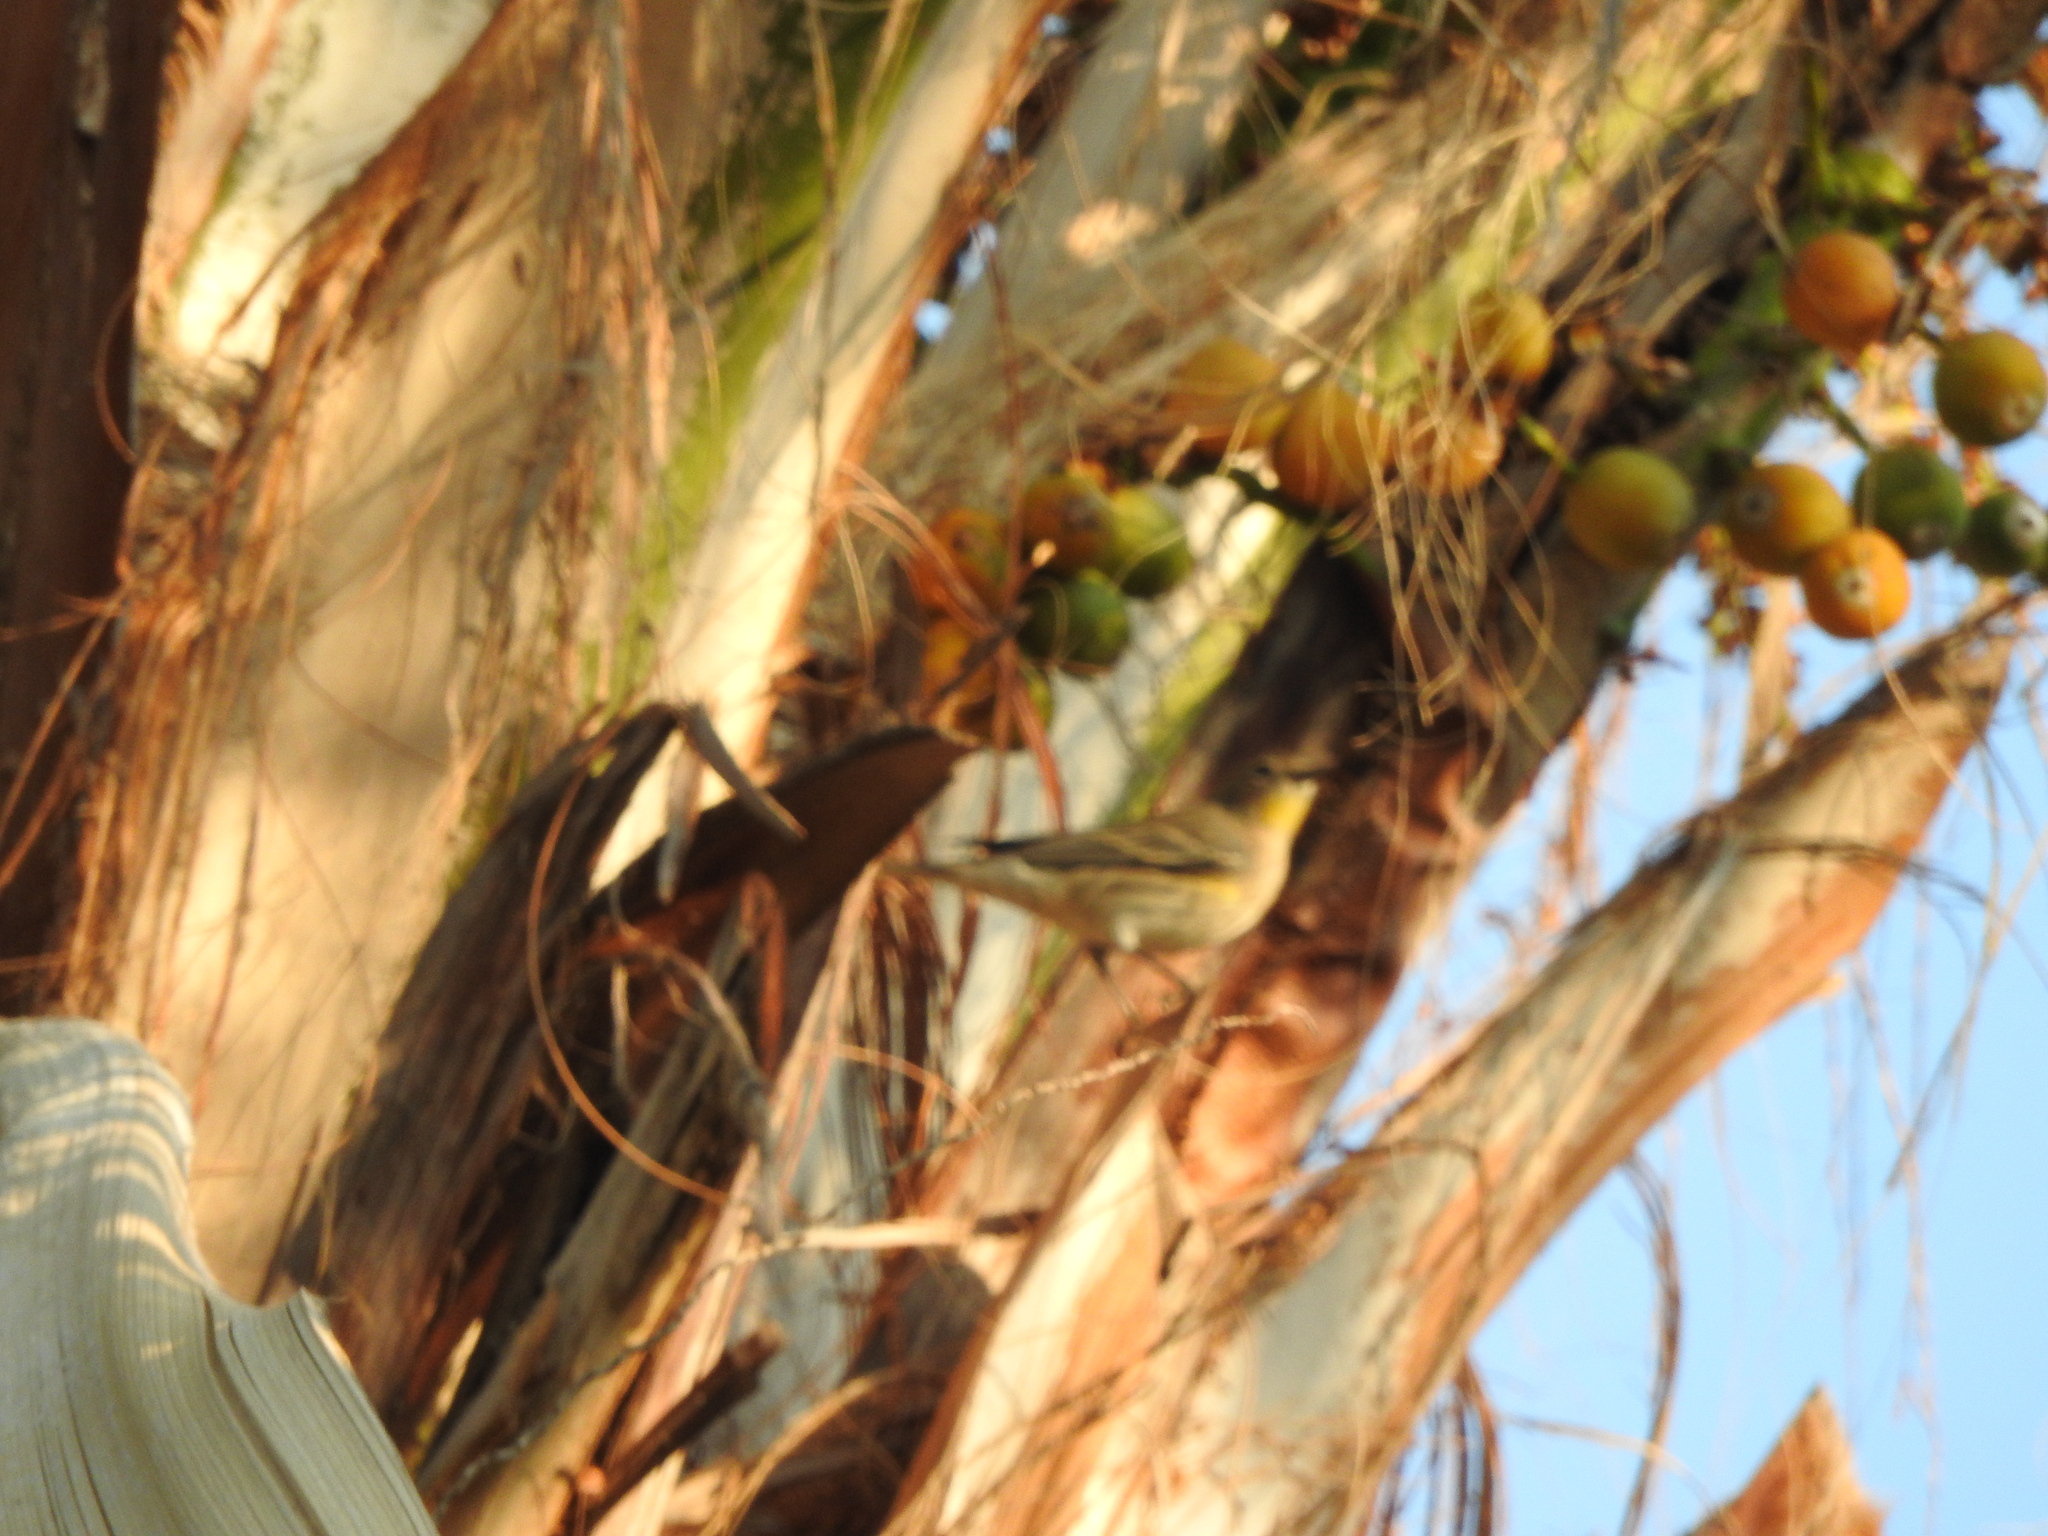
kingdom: Animalia
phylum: Chordata
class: Aves
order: Passeriformes
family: Parulidae
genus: Setophaga
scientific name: Setophaga coronata
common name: Myrtle warbler
